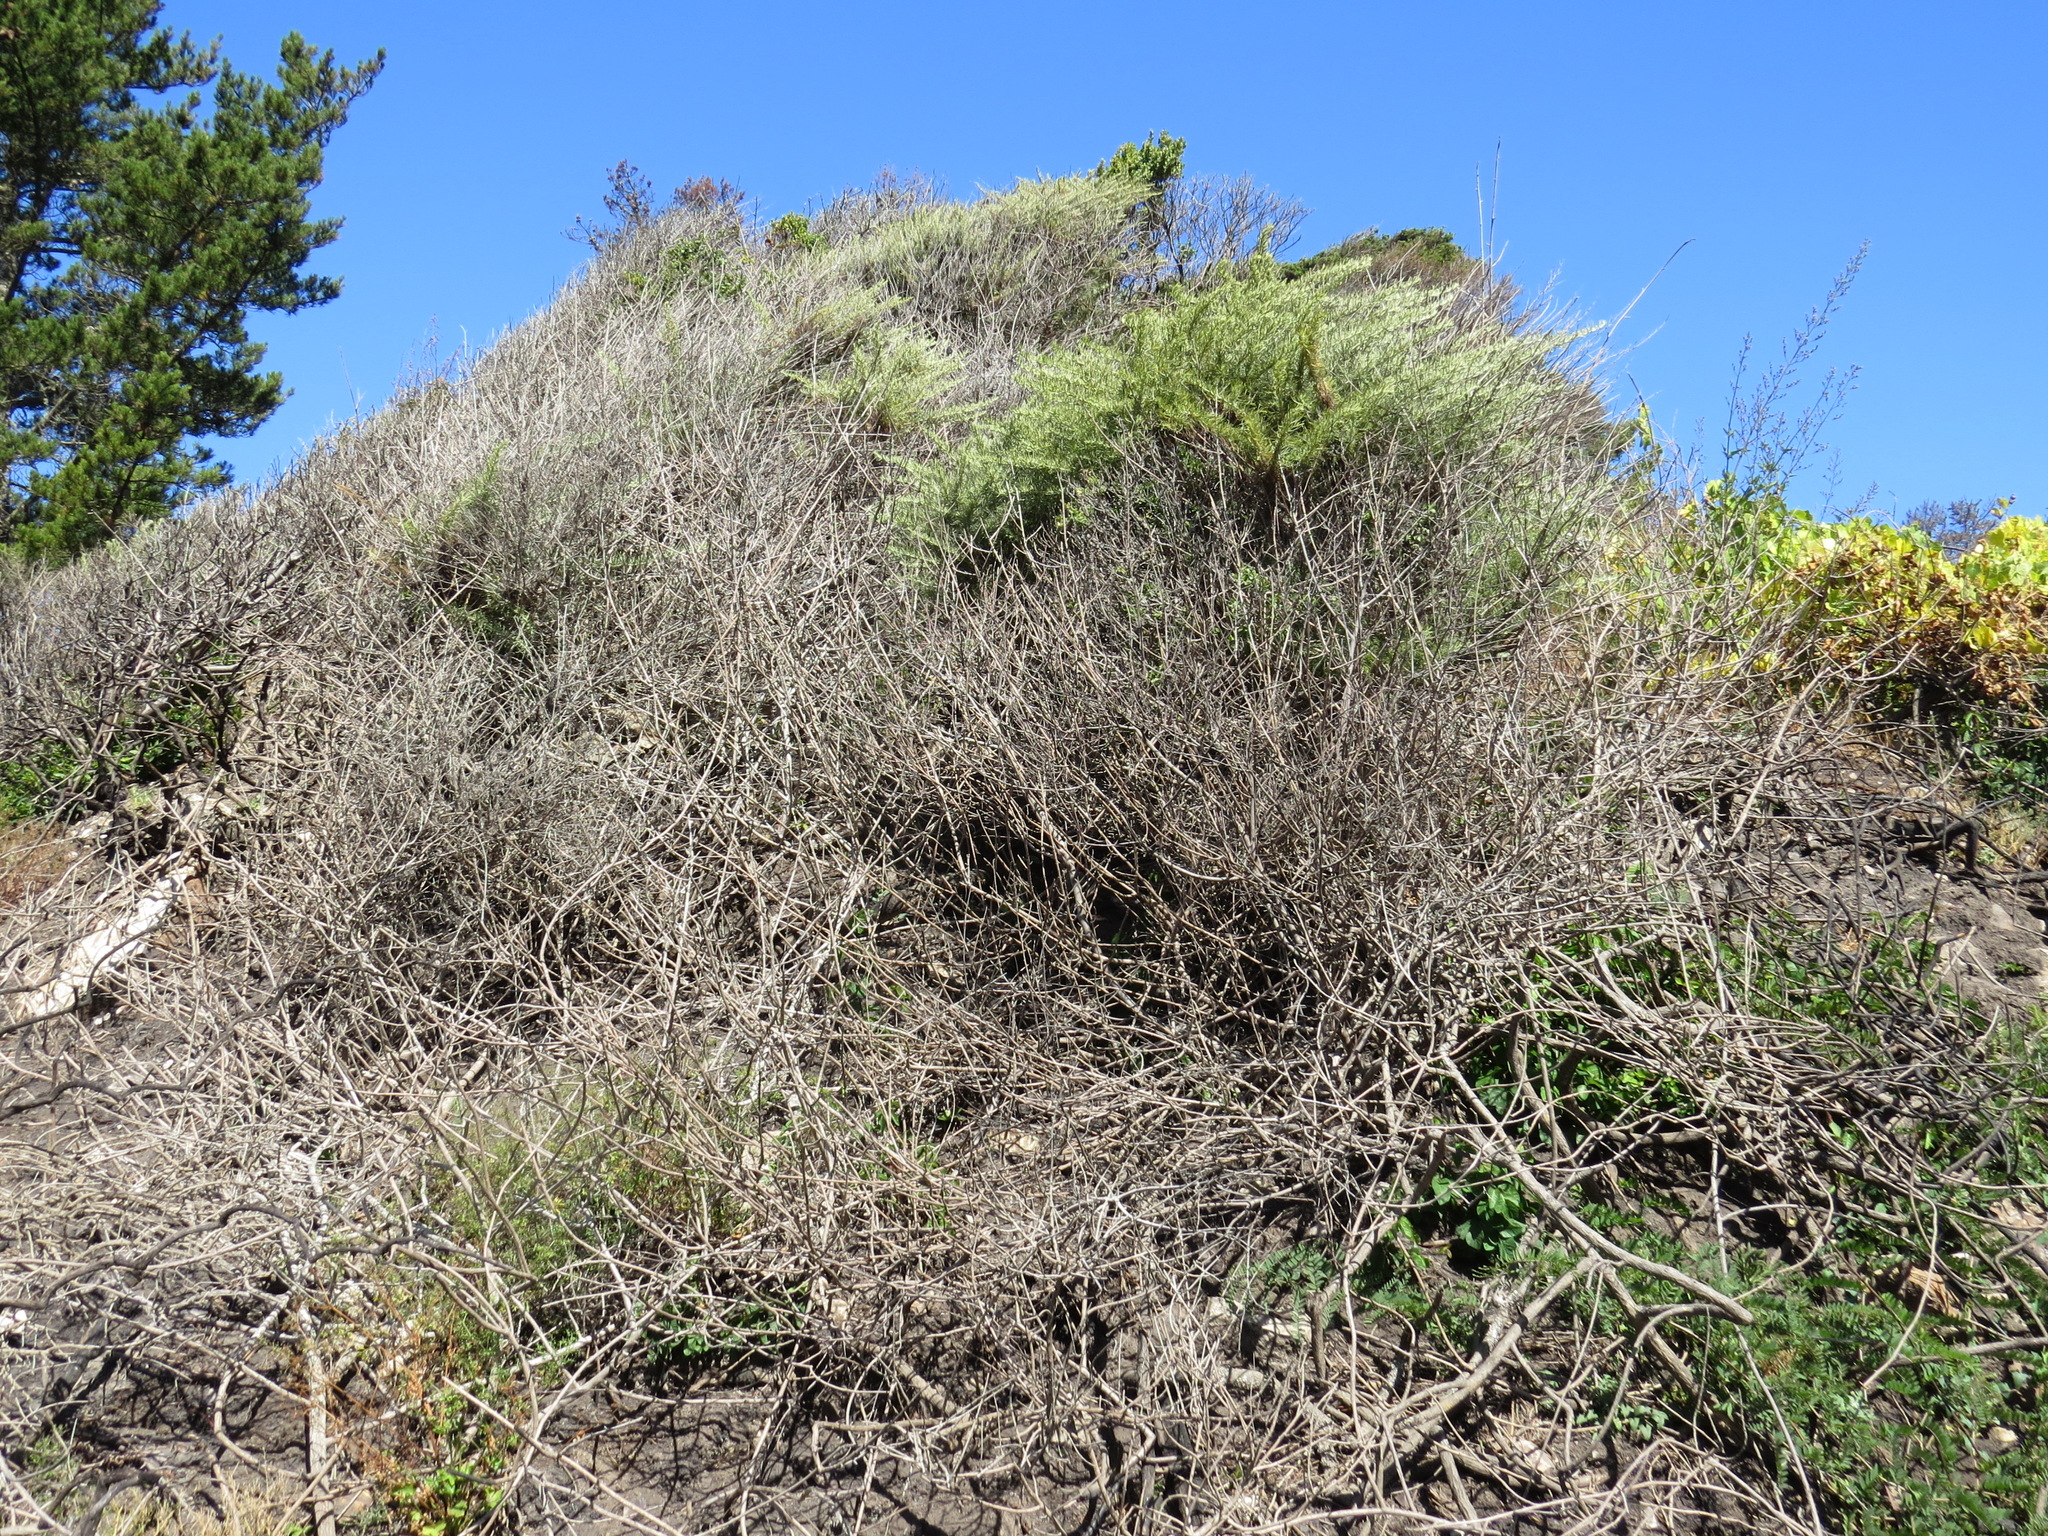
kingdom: Plantae
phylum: Tracheophyta
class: Magnoliopsida
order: Asterales
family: Asteraceae
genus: Artemisia
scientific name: Artemisia californica
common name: California sagebrush
